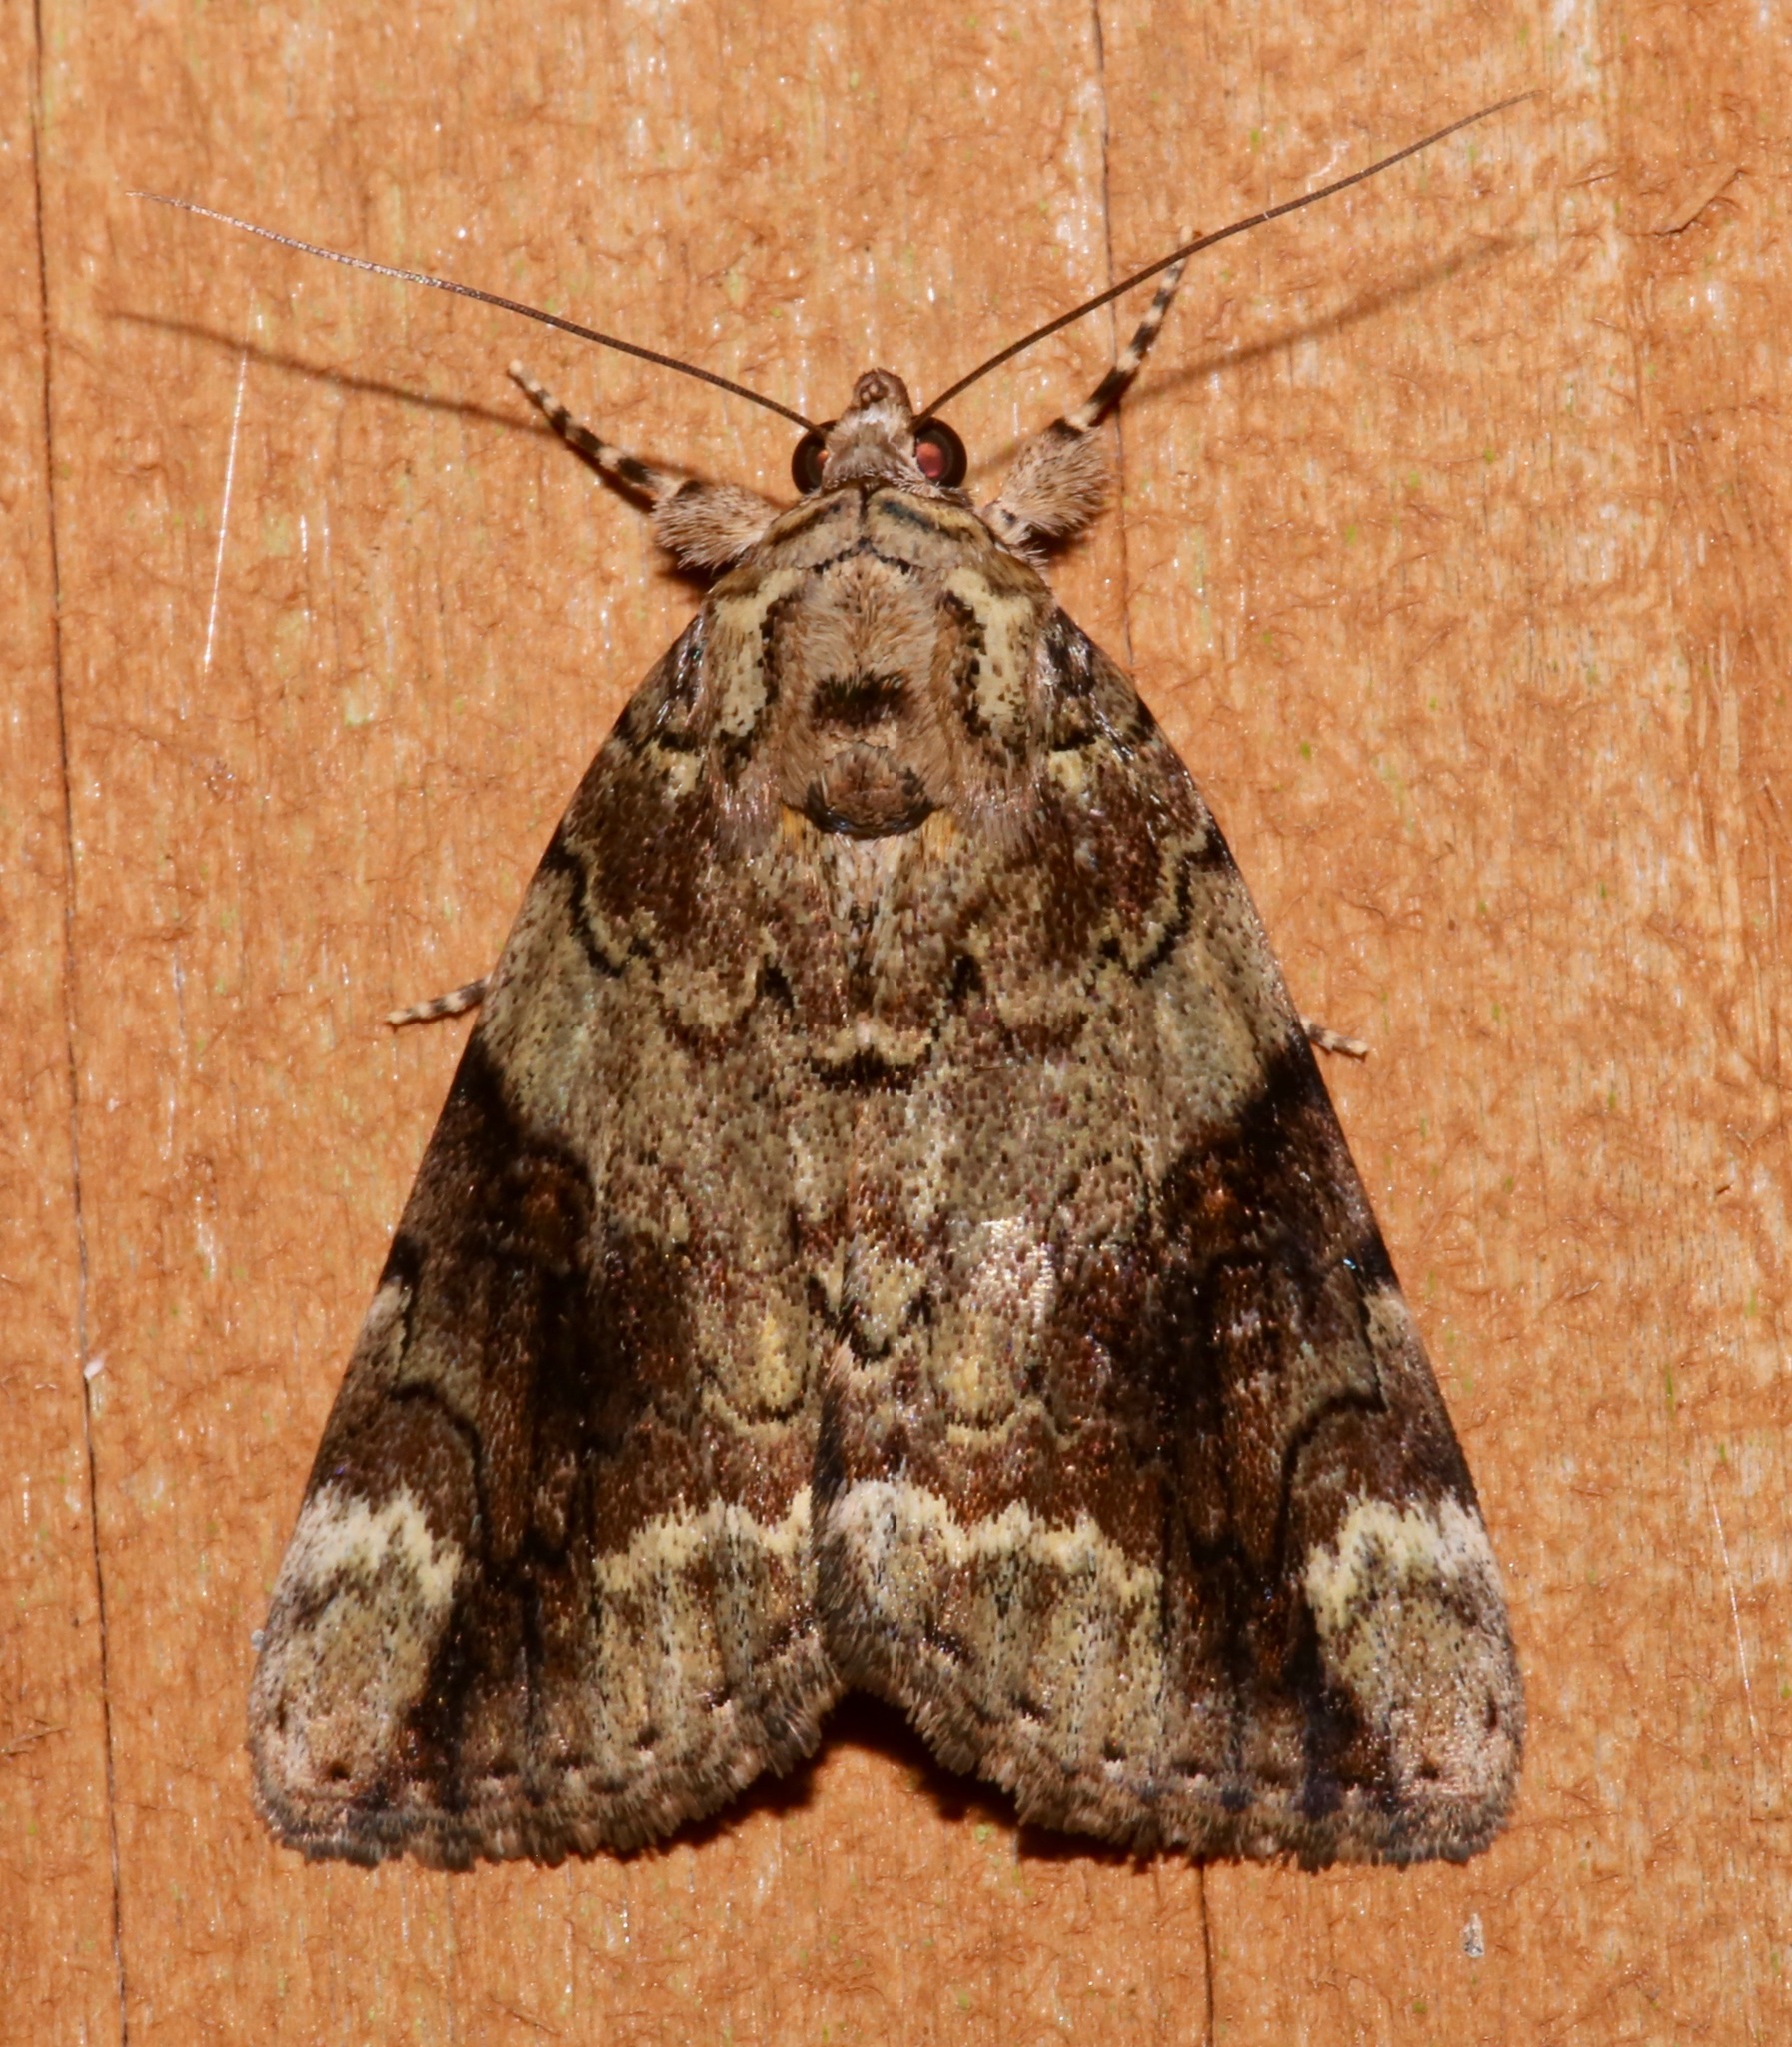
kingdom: Animalia
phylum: Arthropoda
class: Insecta
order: Lepidoptera
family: Erebidae
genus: Catocala
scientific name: Catocala micronympha
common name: Little nymph underwing
